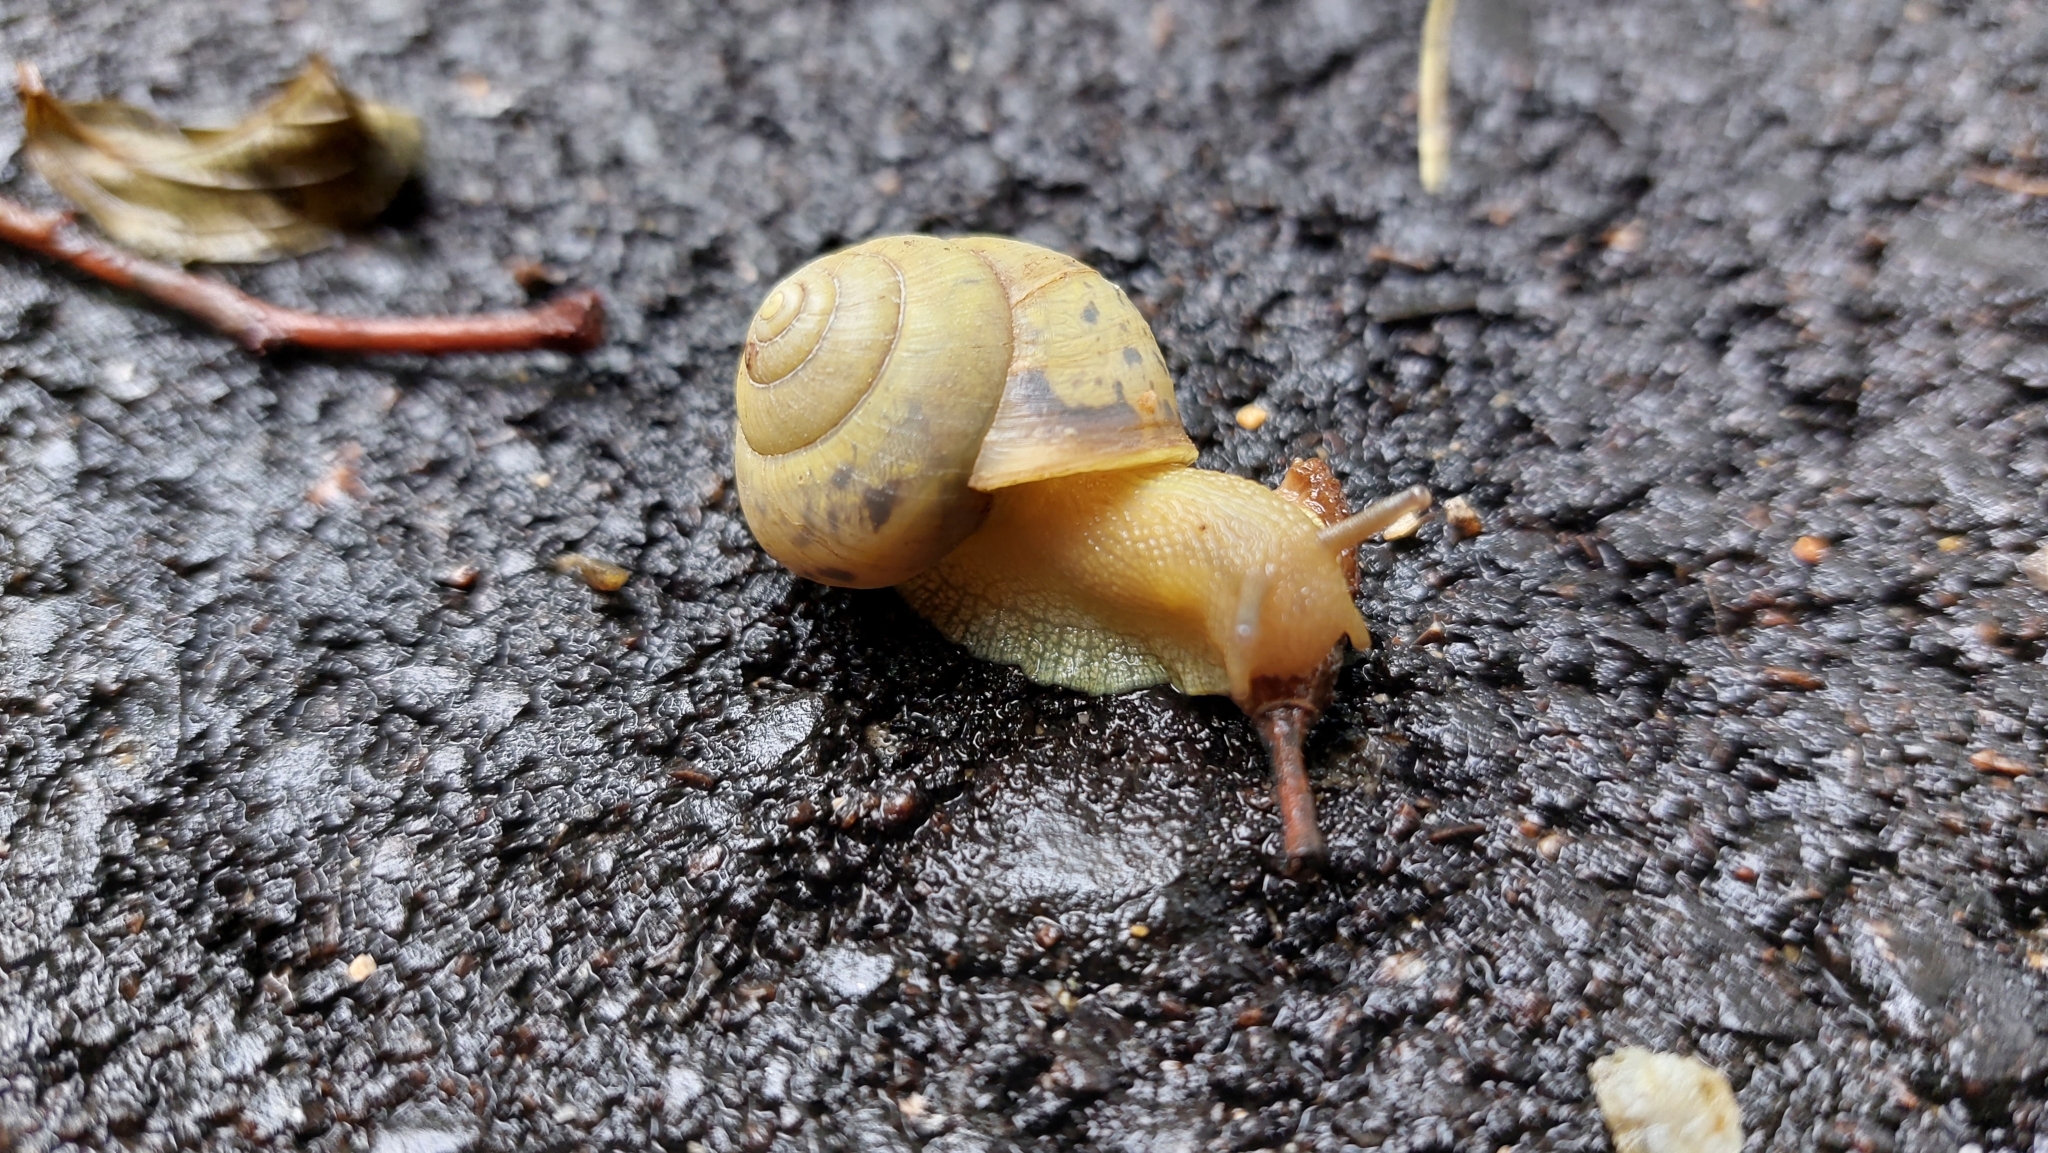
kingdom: Animalia
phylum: Mollusca
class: Gastropoda
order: Stylommatophora
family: Camaenidae
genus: Fruticicola
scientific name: Fruticicola fruticum
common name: Bush snail
